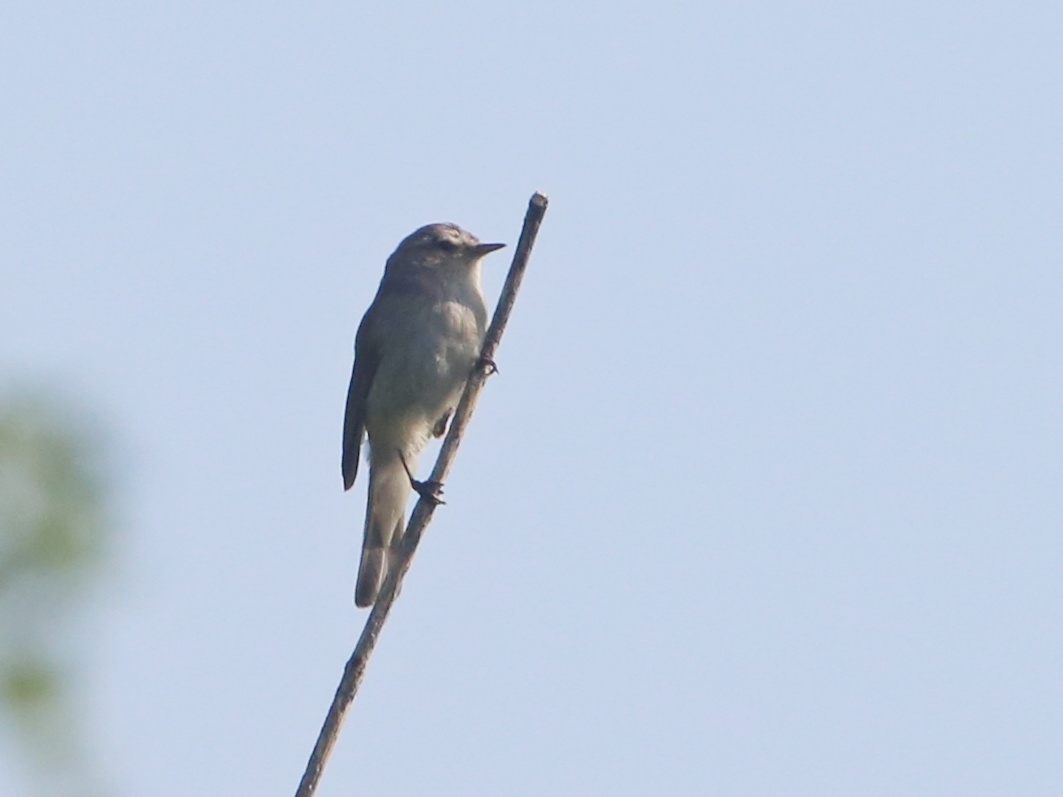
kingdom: Animalia
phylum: Chordata
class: Aves
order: Passeriformes
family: Phylloscopidae
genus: Phylloscopus
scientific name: Phylloscopus collybita
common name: Common chiffchaff
